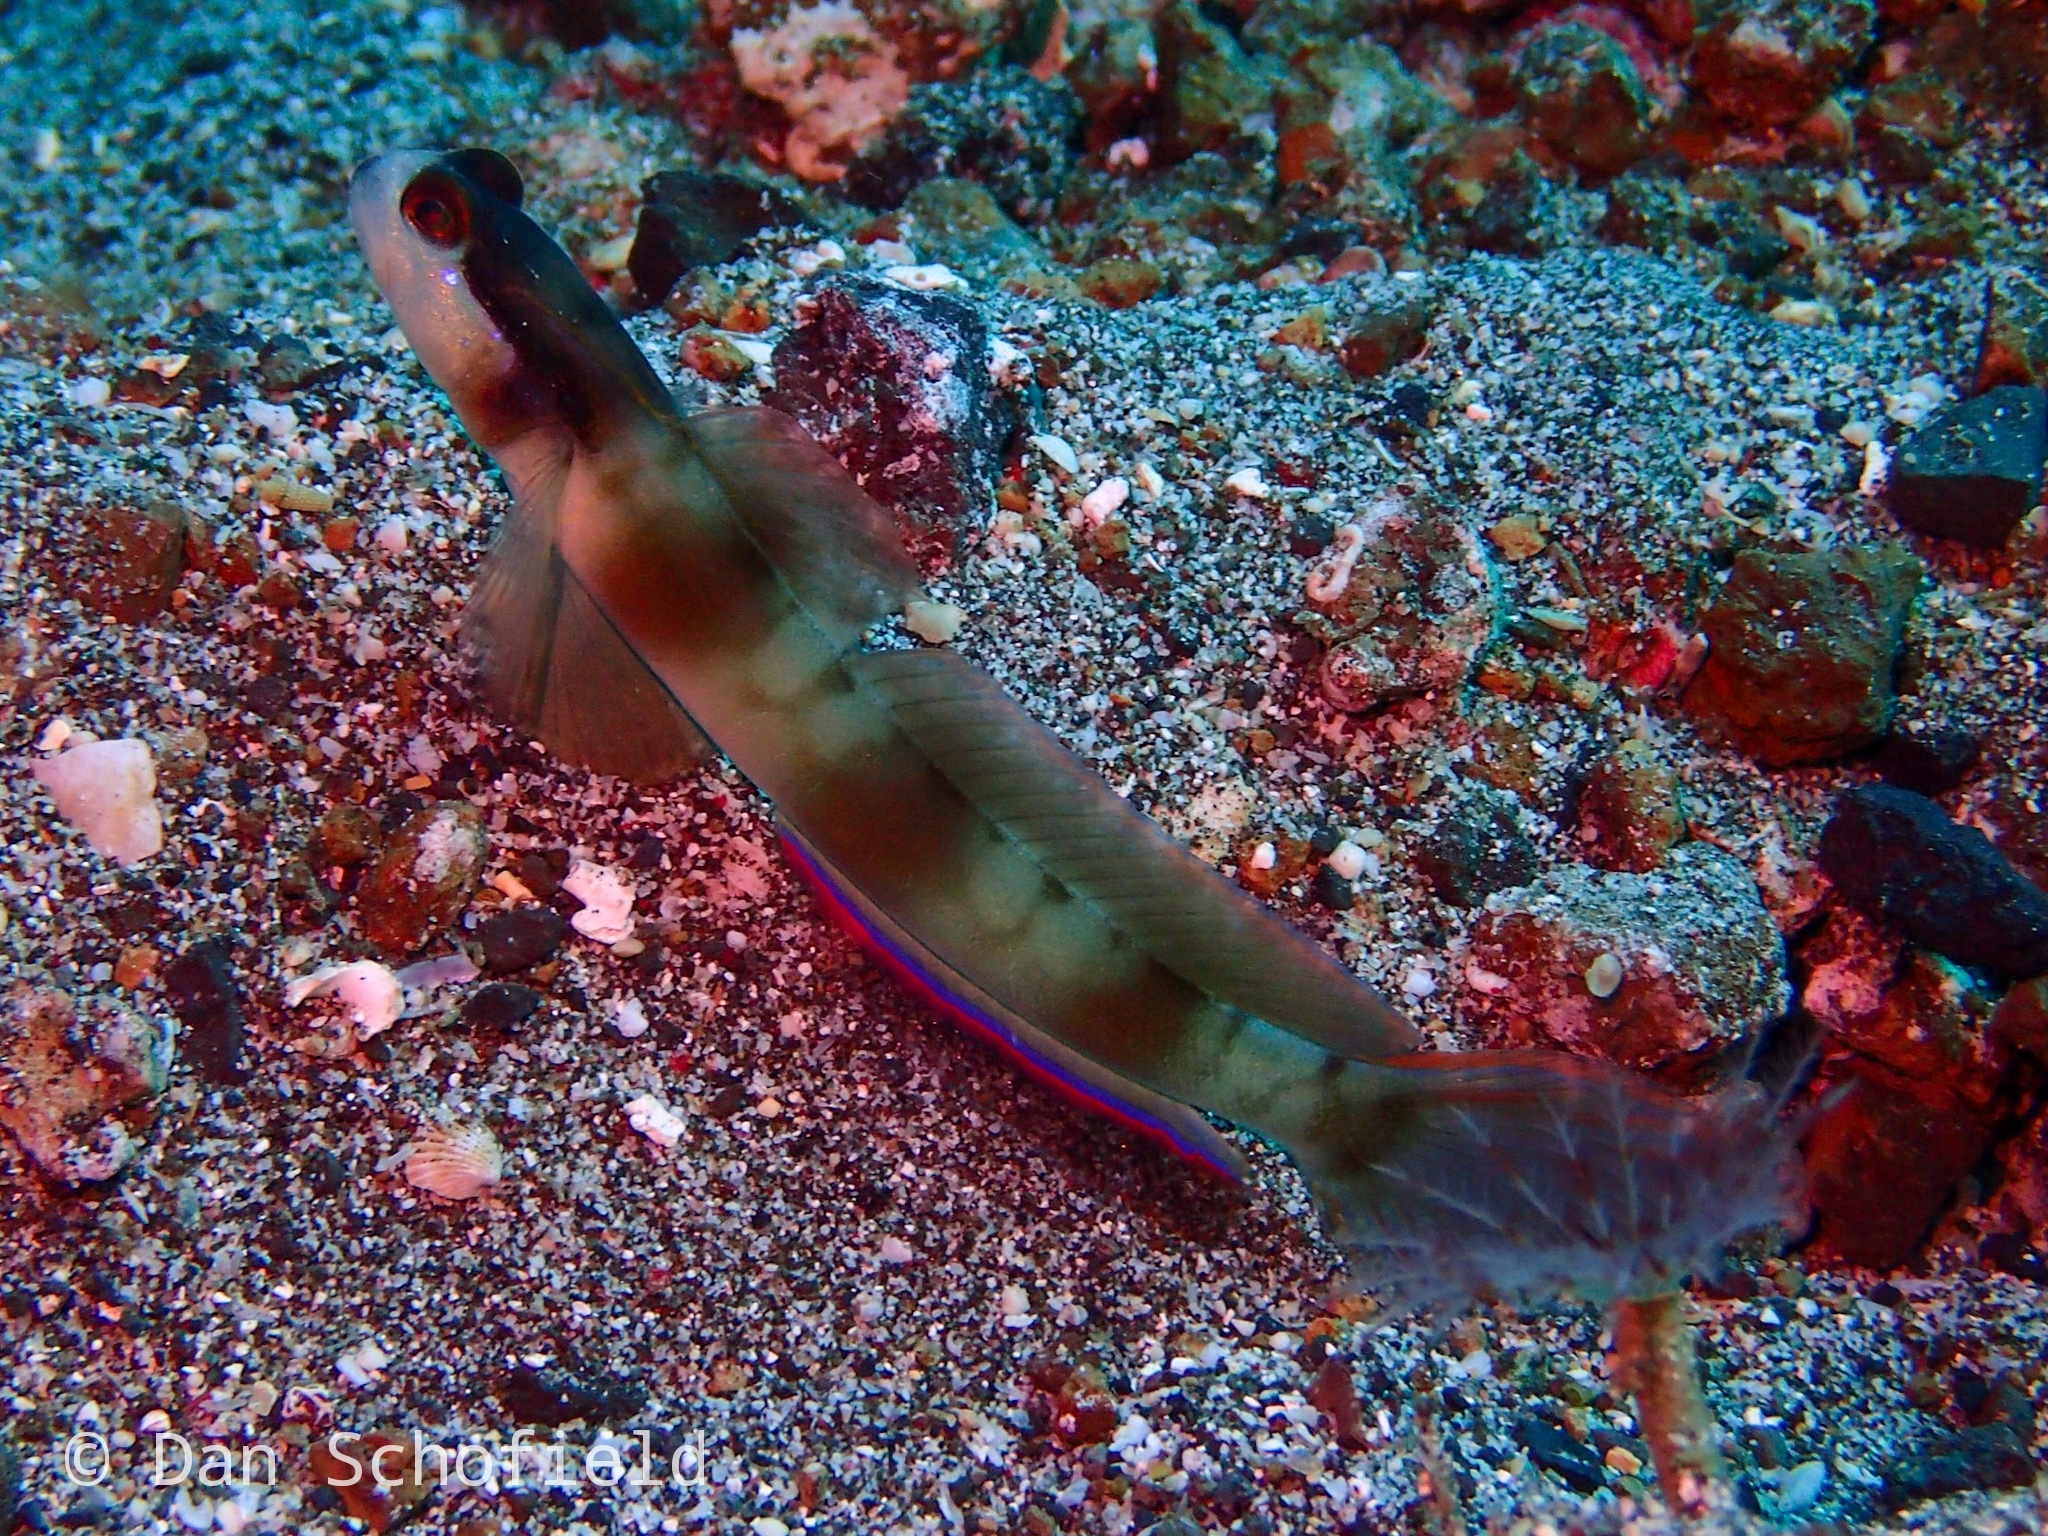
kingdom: Animalia
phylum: Chordata
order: Perciformes
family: Gobiidae
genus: Amblyeleotris
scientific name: Amblyeleotris gymnocephala
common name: Masked shrimpgoby
